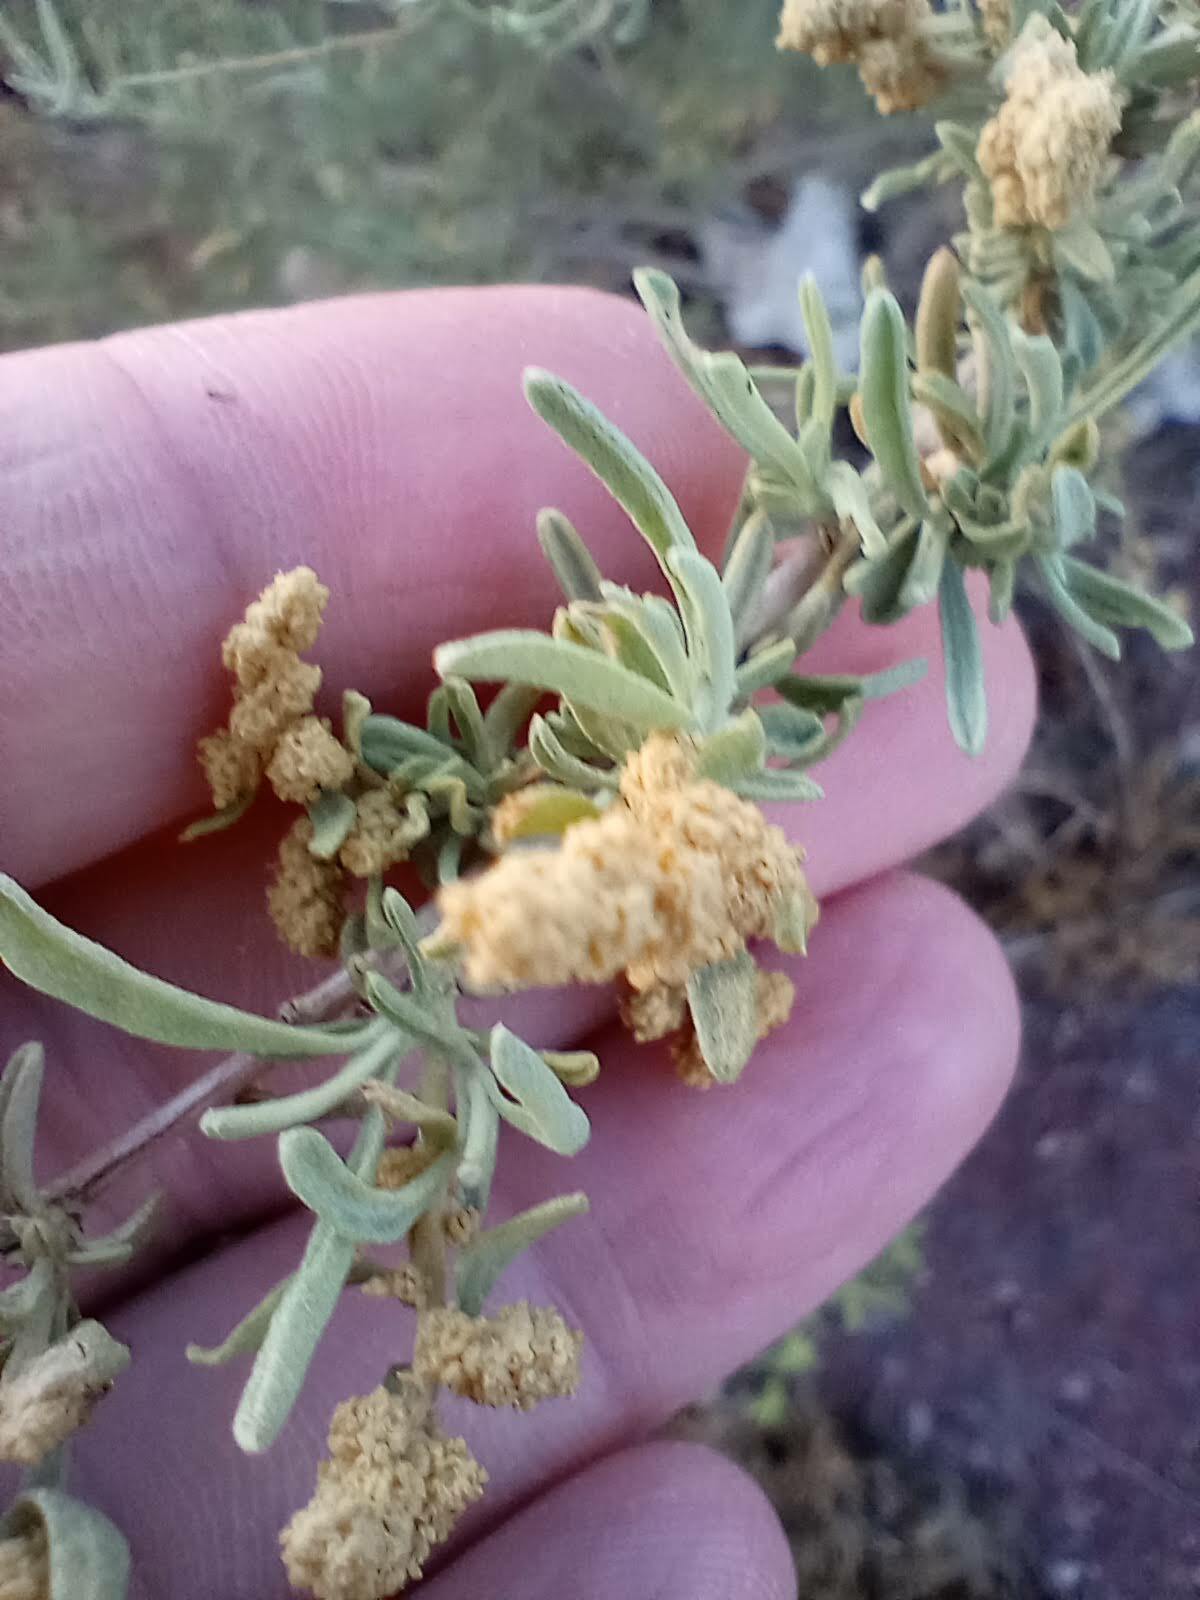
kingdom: Plantae
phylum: Tracheophyta
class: Magnoliopsida
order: Caryophyllales
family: Amaranthaceae
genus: Atriplex
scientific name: Atriplex canescens
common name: Four-wing saltbush
